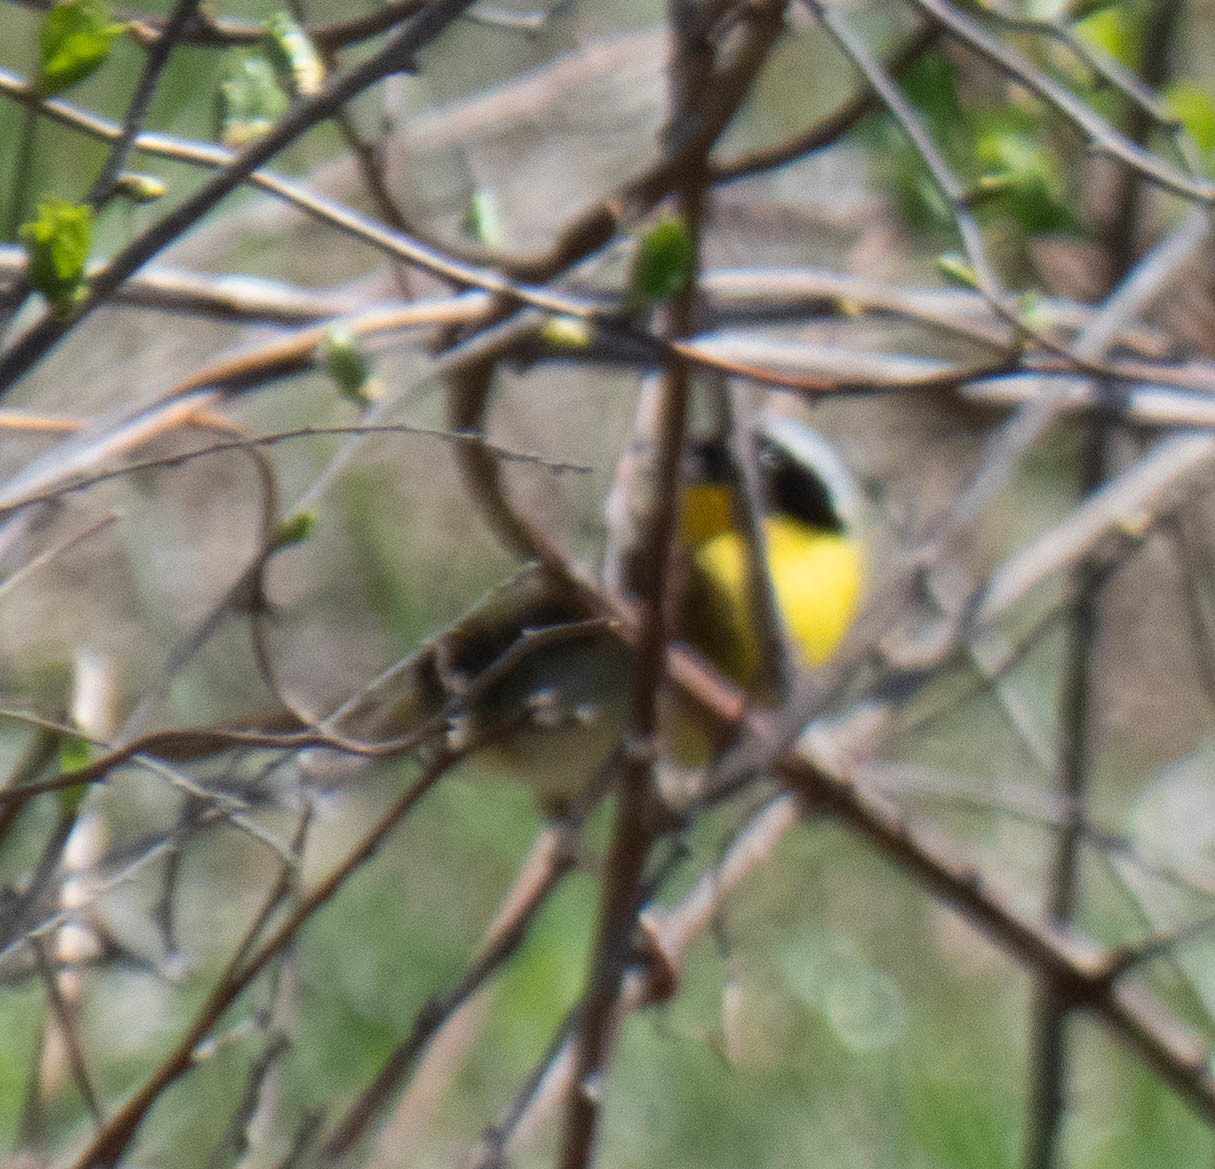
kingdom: Animalia
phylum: Chordata
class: Aves
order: Passeriformes
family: Parulidae
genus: Geothlypis
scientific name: Geothlypis trichas
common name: Common yellowthroat
